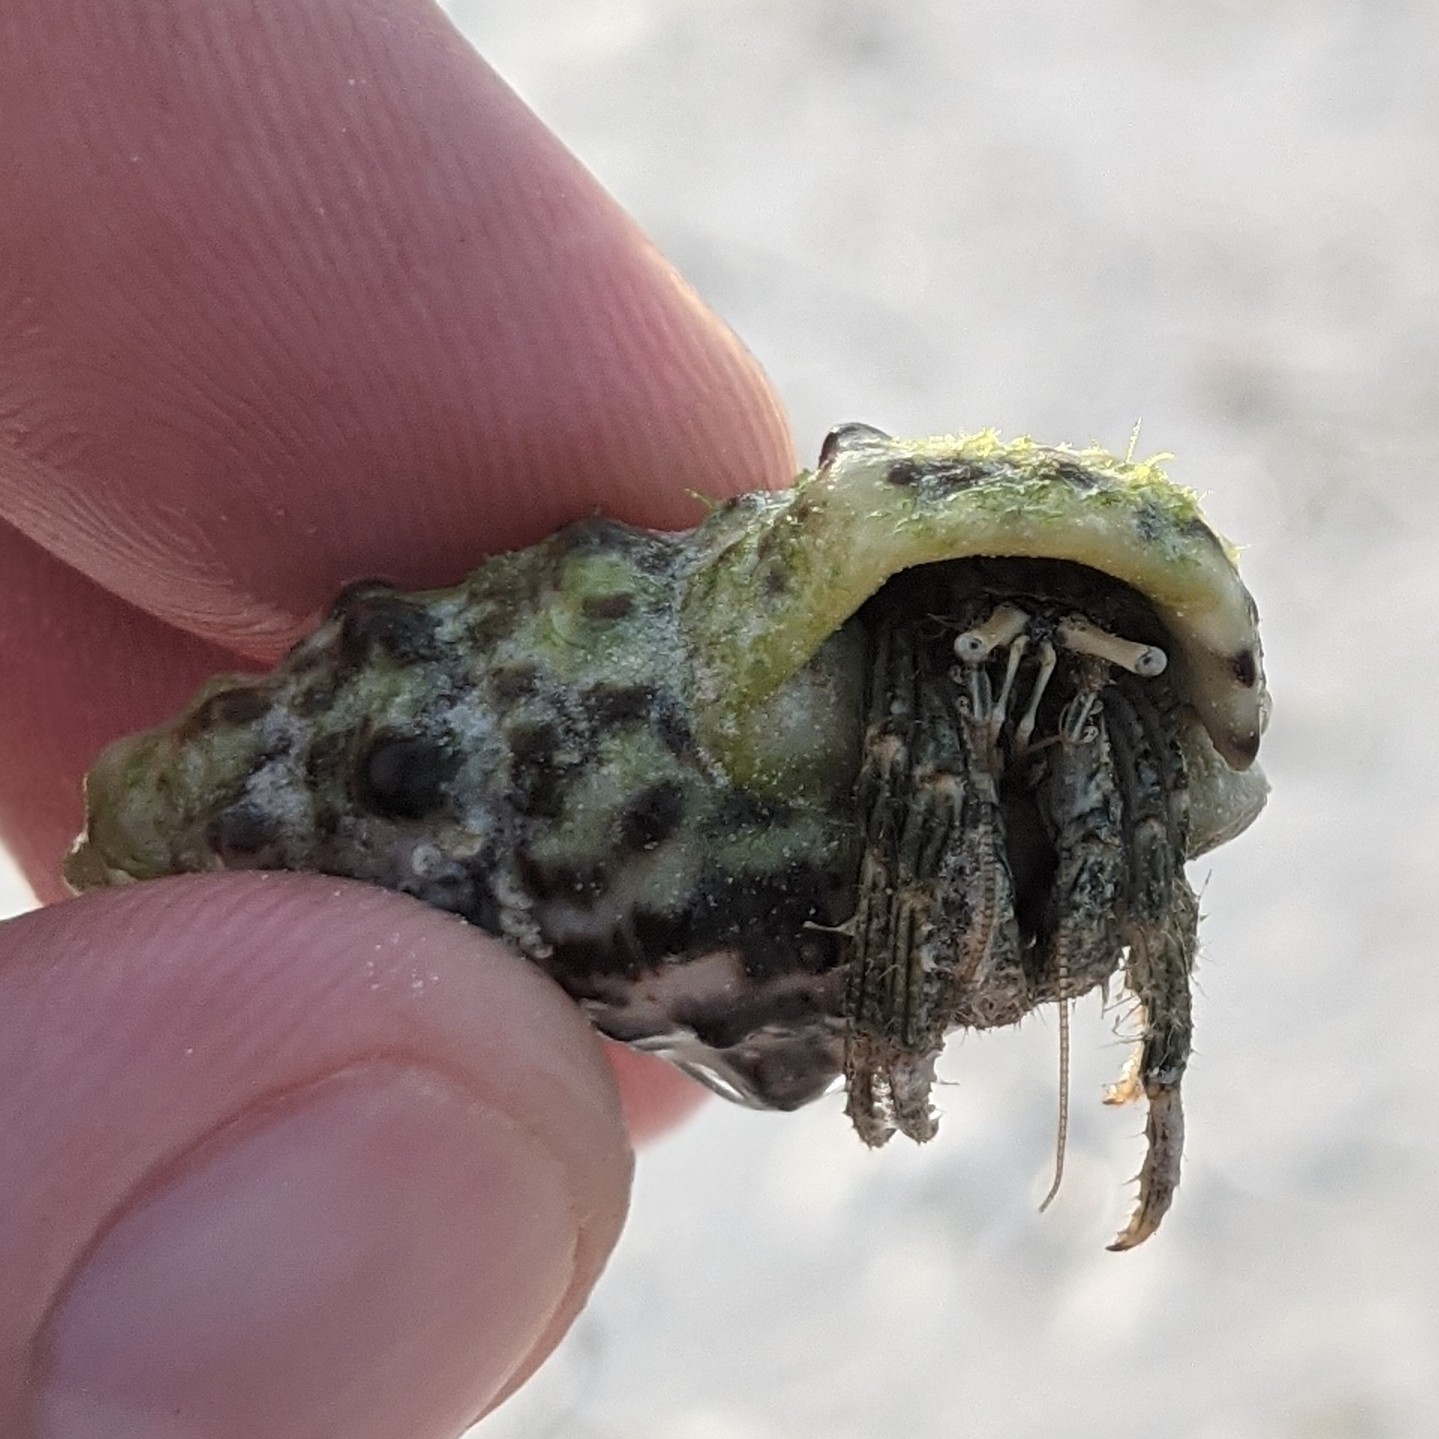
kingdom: Animalia
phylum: Arthropoda
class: Malacostraca
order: Decapoda
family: Diogenidae
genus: Clibanarius
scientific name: Clibanarius striolatus
